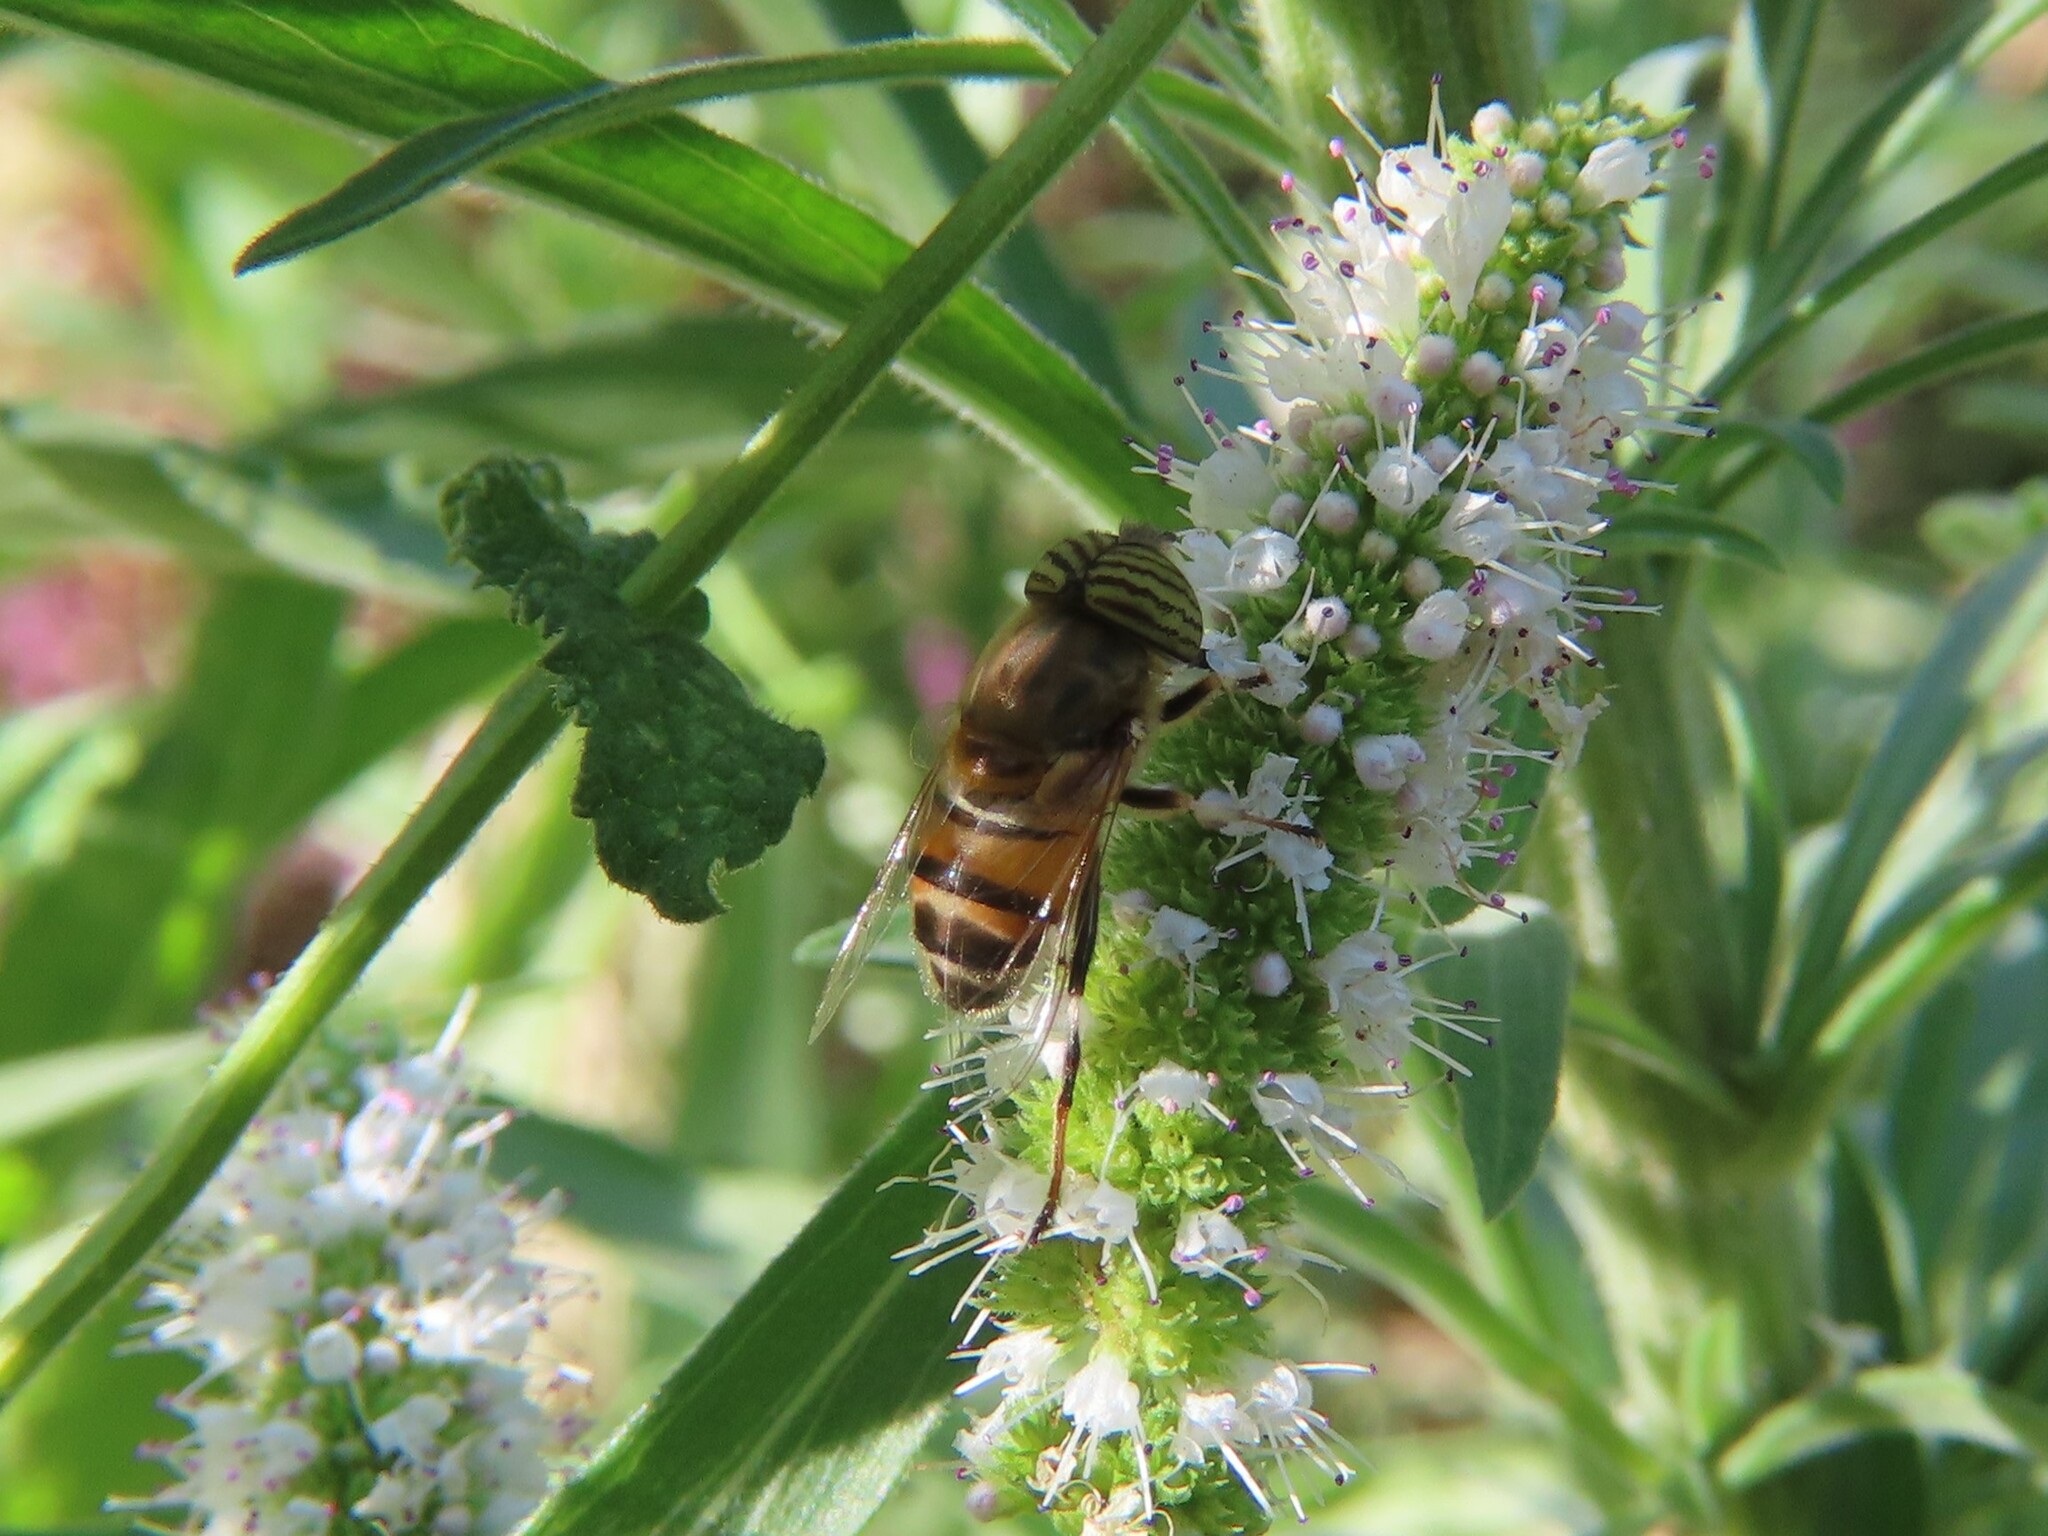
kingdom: Animalia
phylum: Arthropoda
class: Insecta
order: Diptera
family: Syrphidae
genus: Eristalinus
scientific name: Eristalinus taeniops
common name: Syrphid fly
